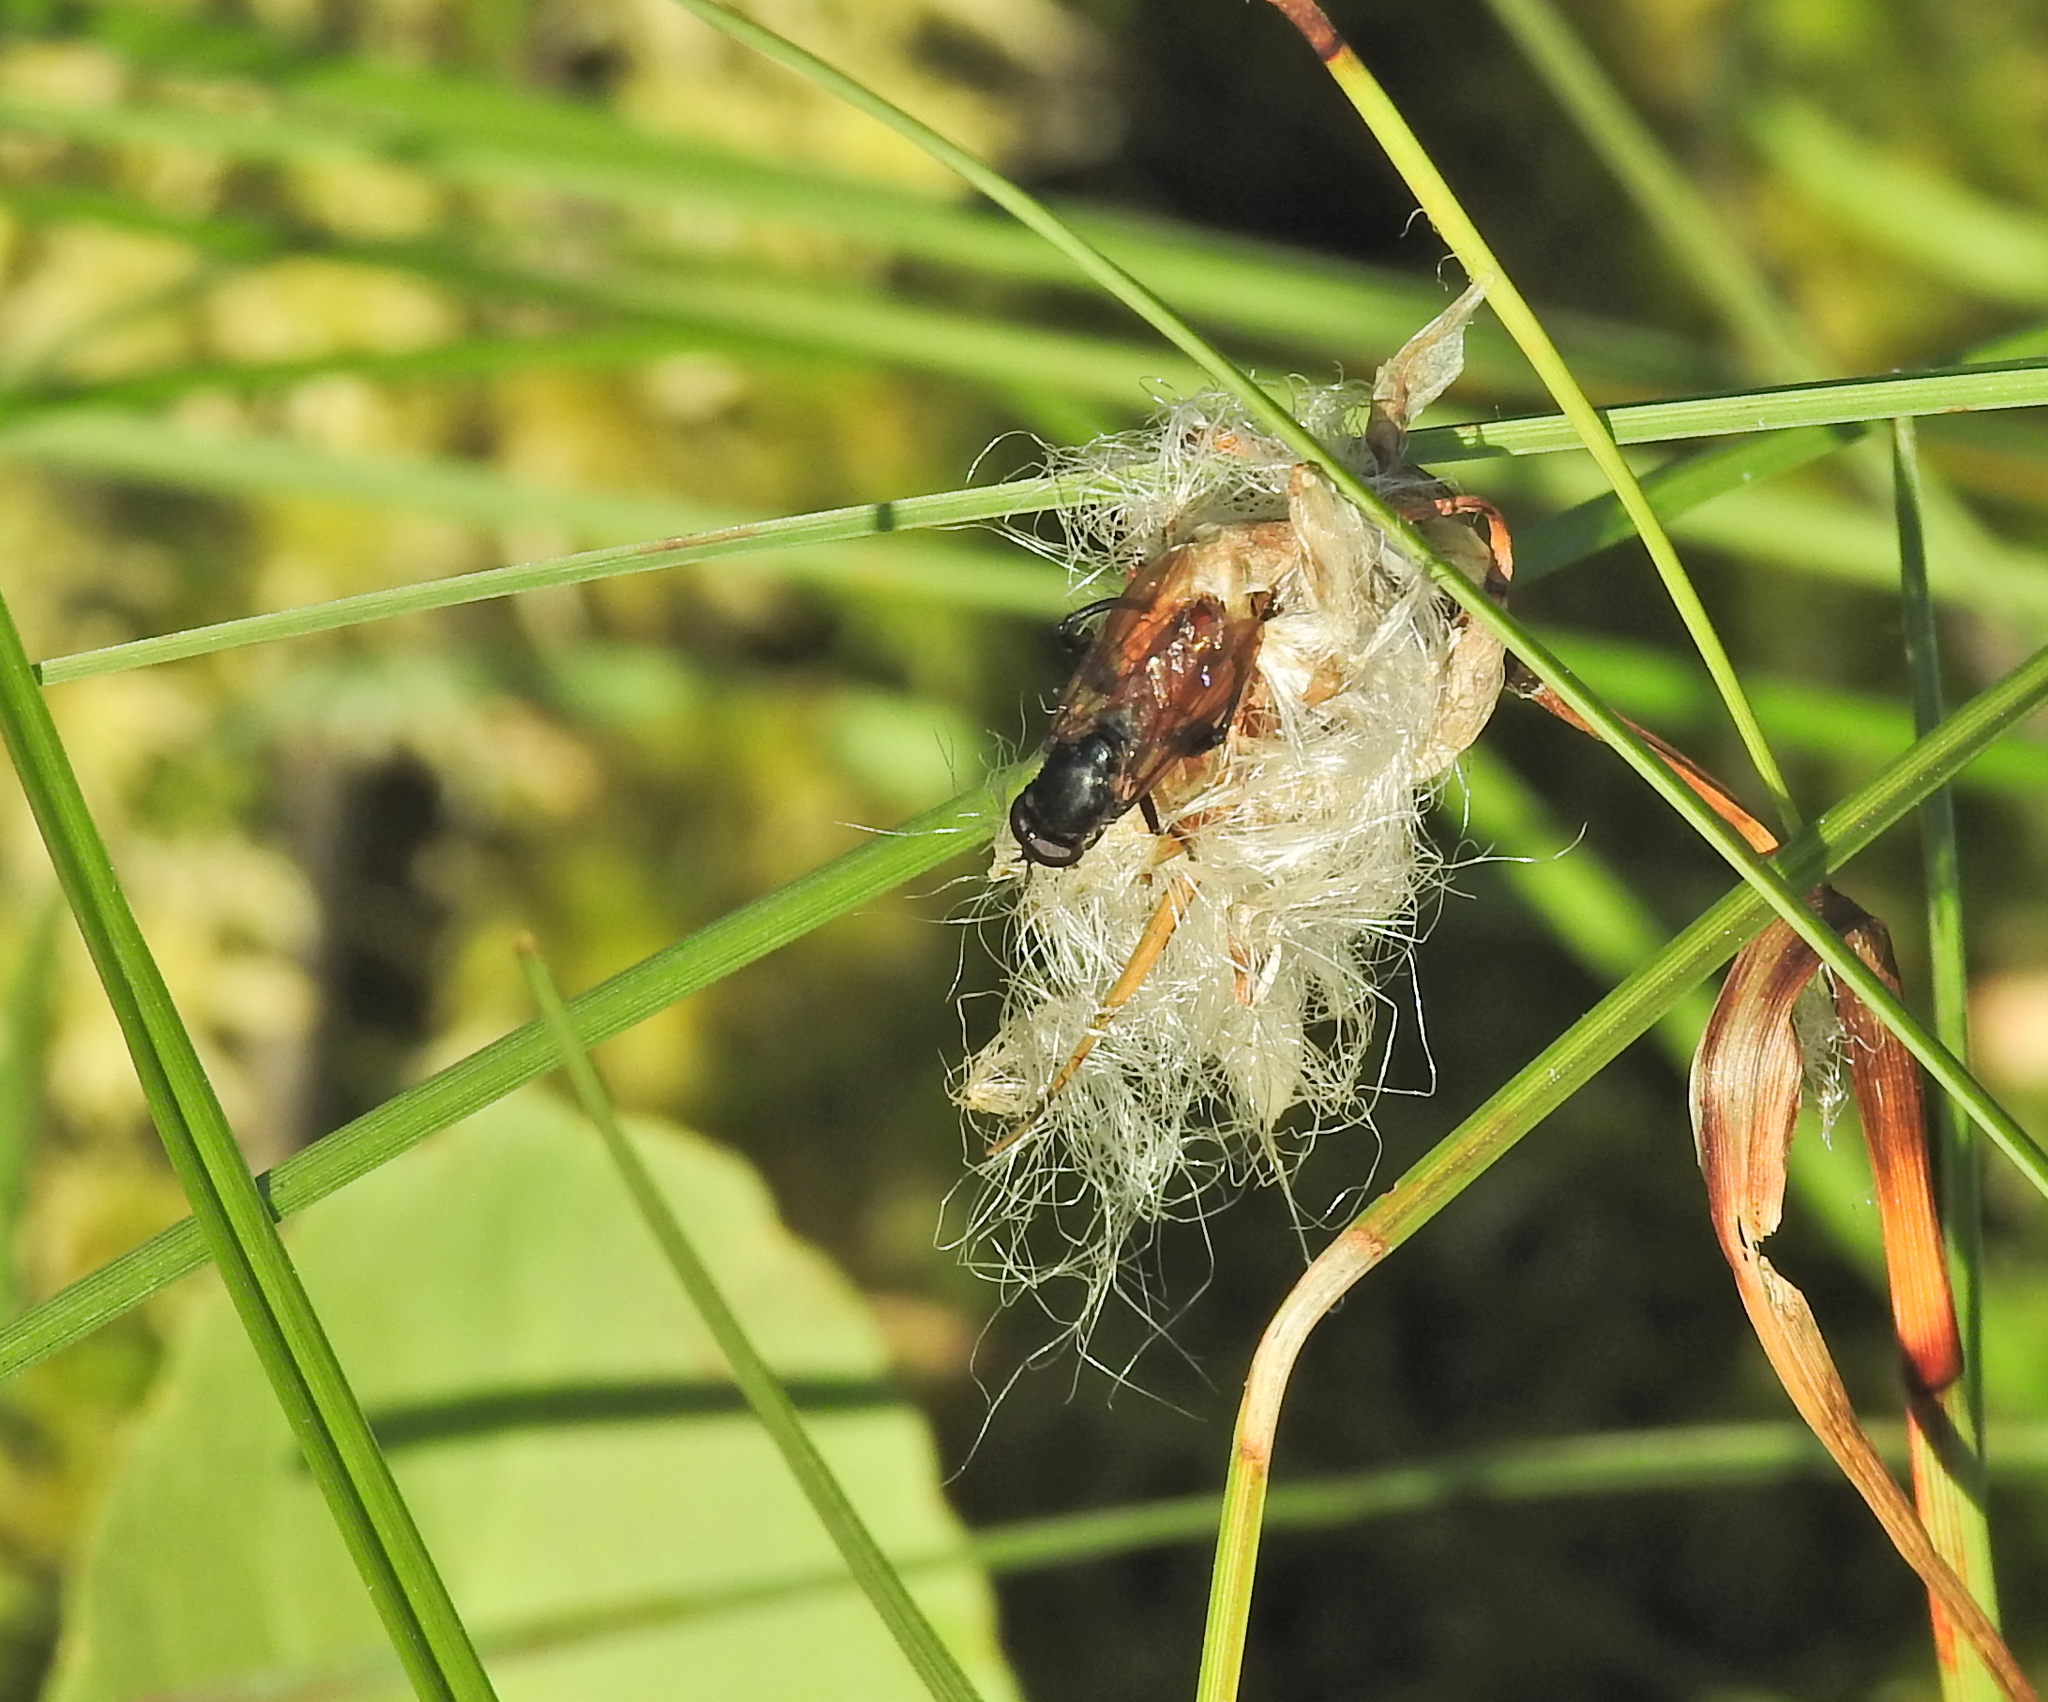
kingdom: Animalia
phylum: Arthropoda
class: Insecta
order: Diptera
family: Syrphidae
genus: Chalcosyrphus
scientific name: Chalcosyrphus piger
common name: Short-haired leafwalker
